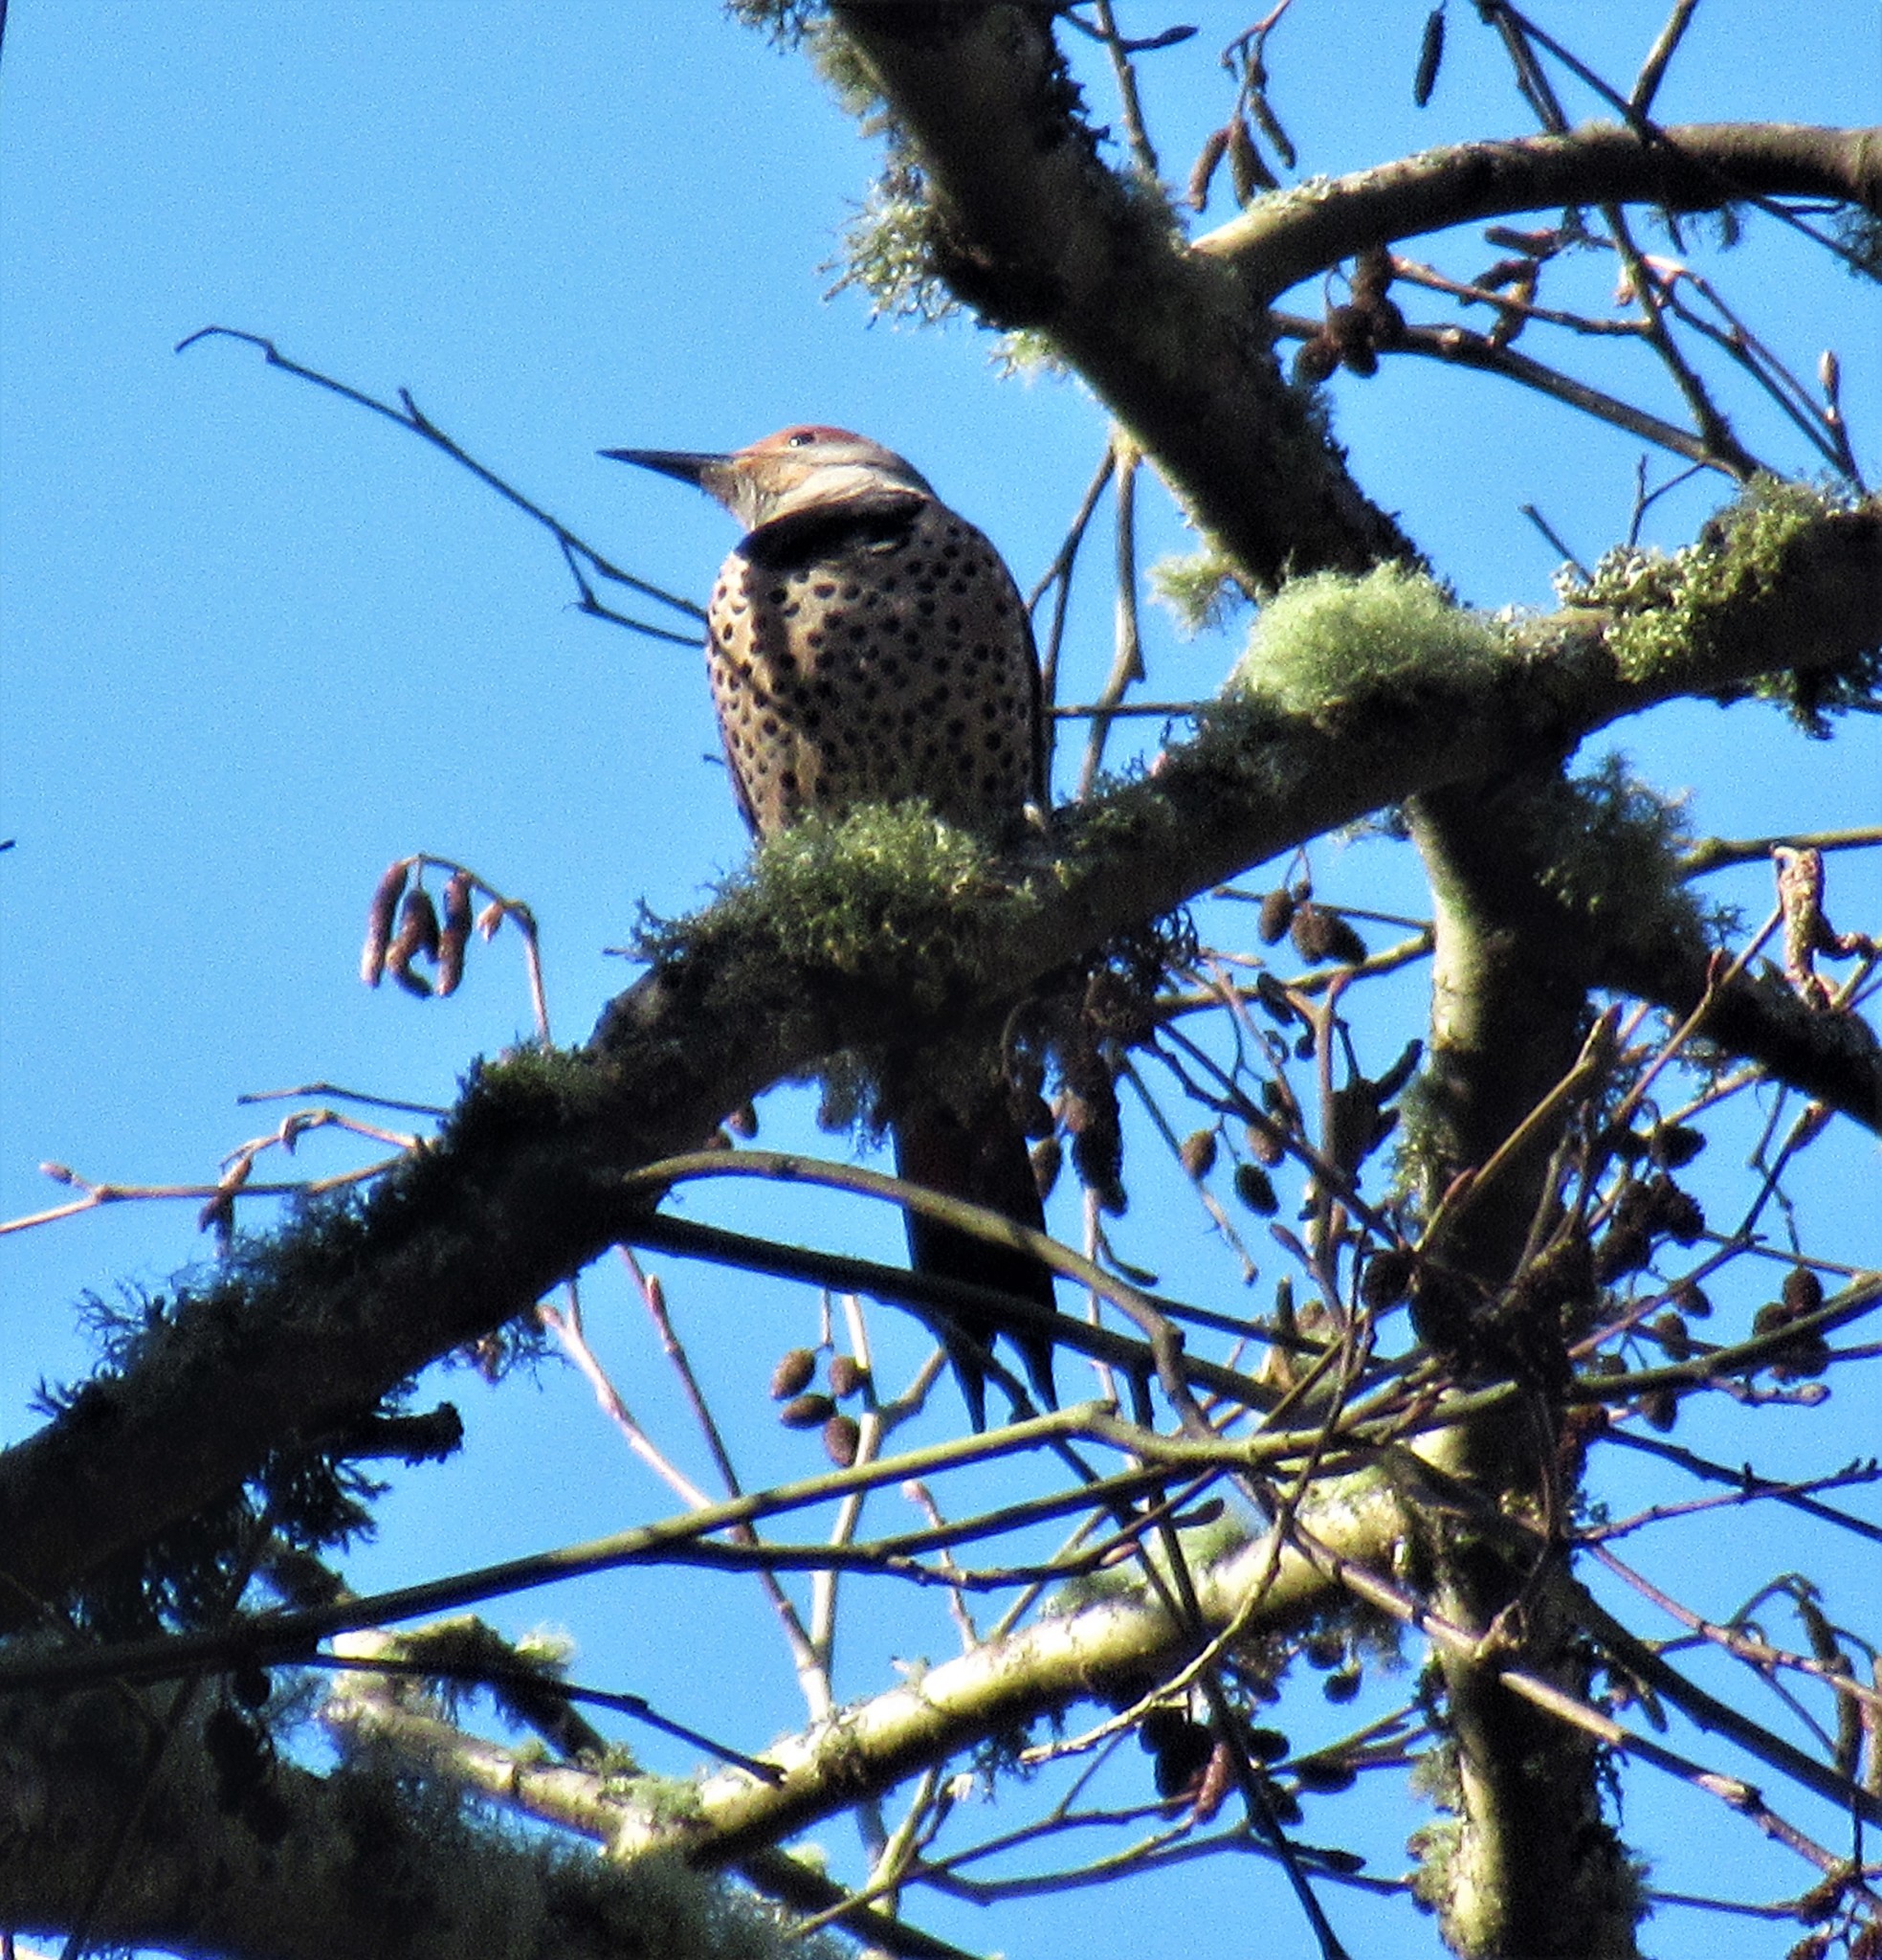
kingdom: Animalia
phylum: Chordata
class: Aves
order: Piciformes
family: Picidae
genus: Colaptes
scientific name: Colaptes auratus
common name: Northern flicker
